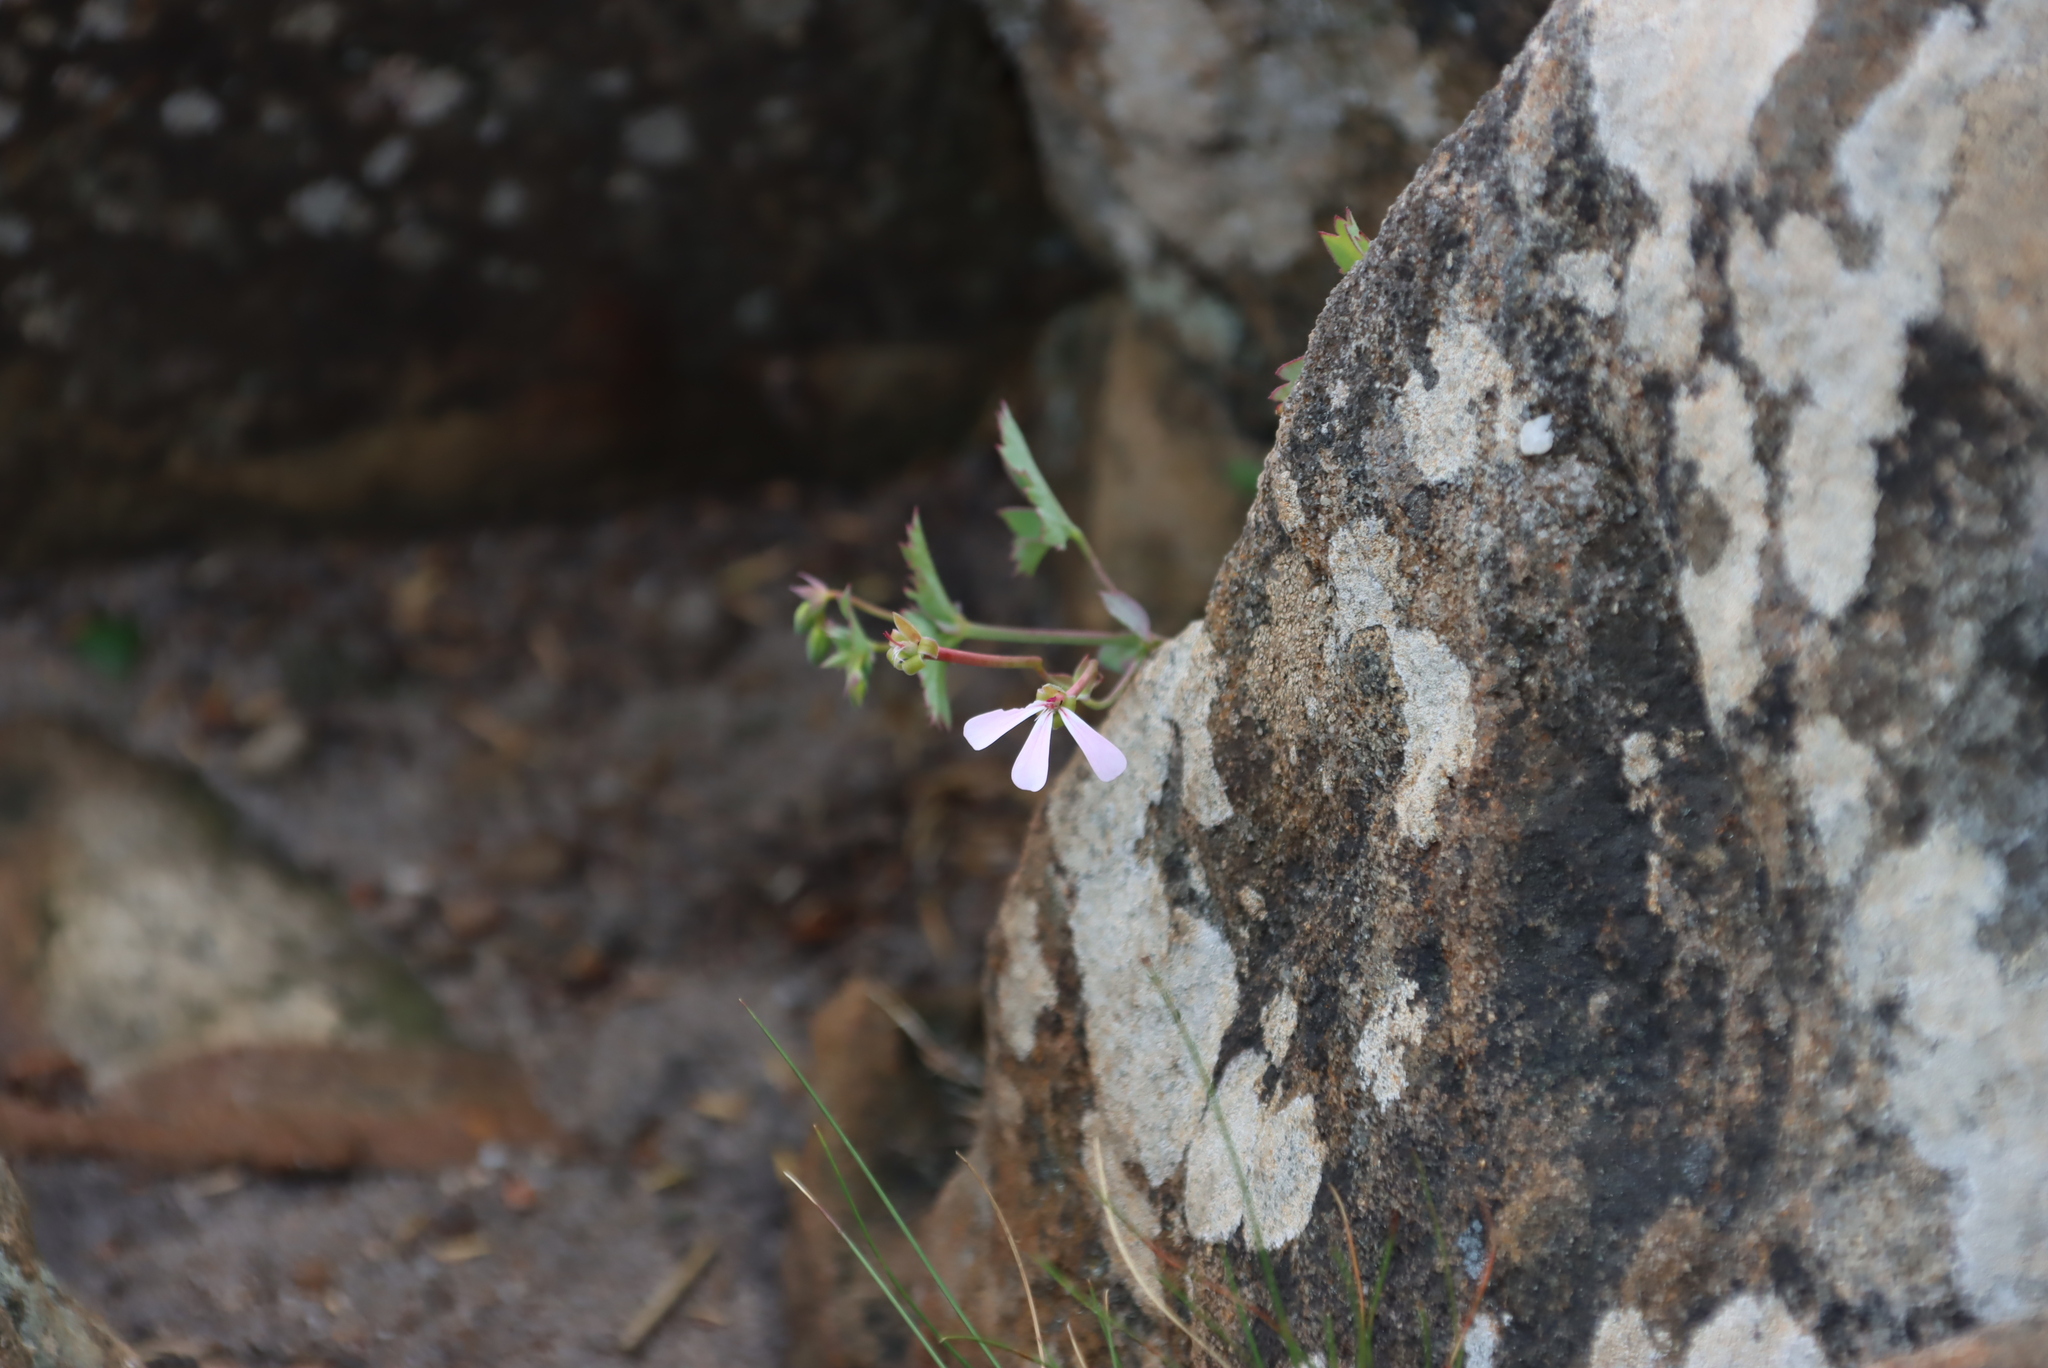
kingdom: Plantae
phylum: Tracheophyta
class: Magnoliopsida
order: Geraniales
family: Geraniaceae
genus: Pelargonium
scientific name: Pelargonium patulum
